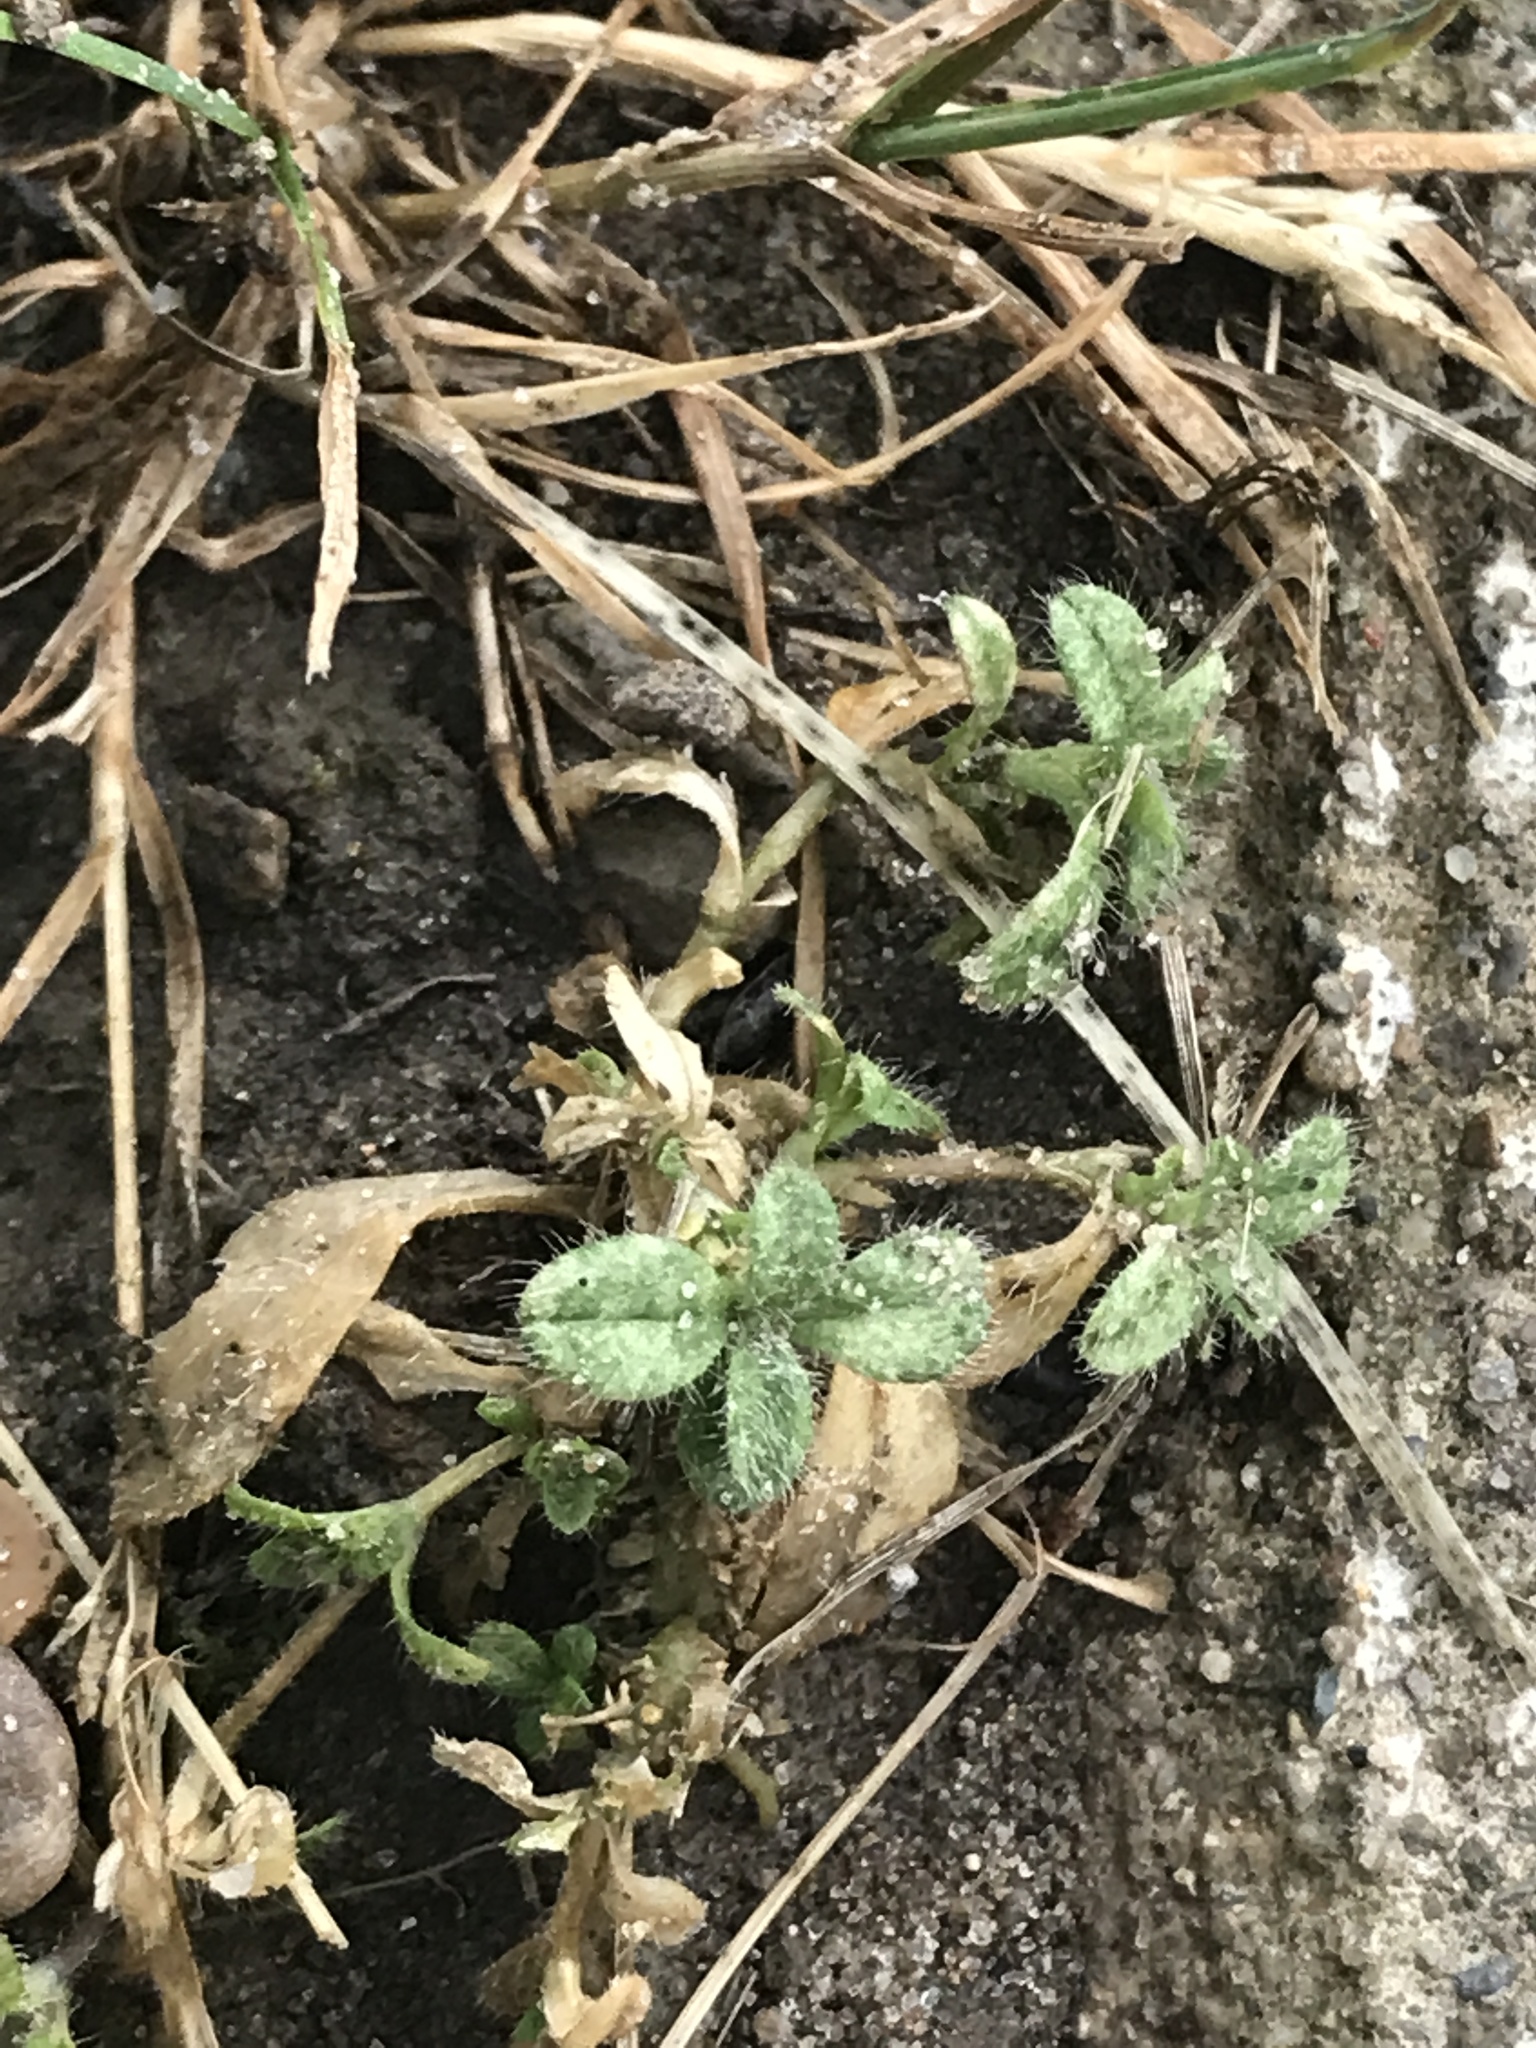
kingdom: Plantae
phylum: Tracheophyta
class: Magnoliopsida
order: Caryophyllales
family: Caryophyllaceae
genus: Cerastium
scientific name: Cerastium fontanum
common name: Common mouse-ear
